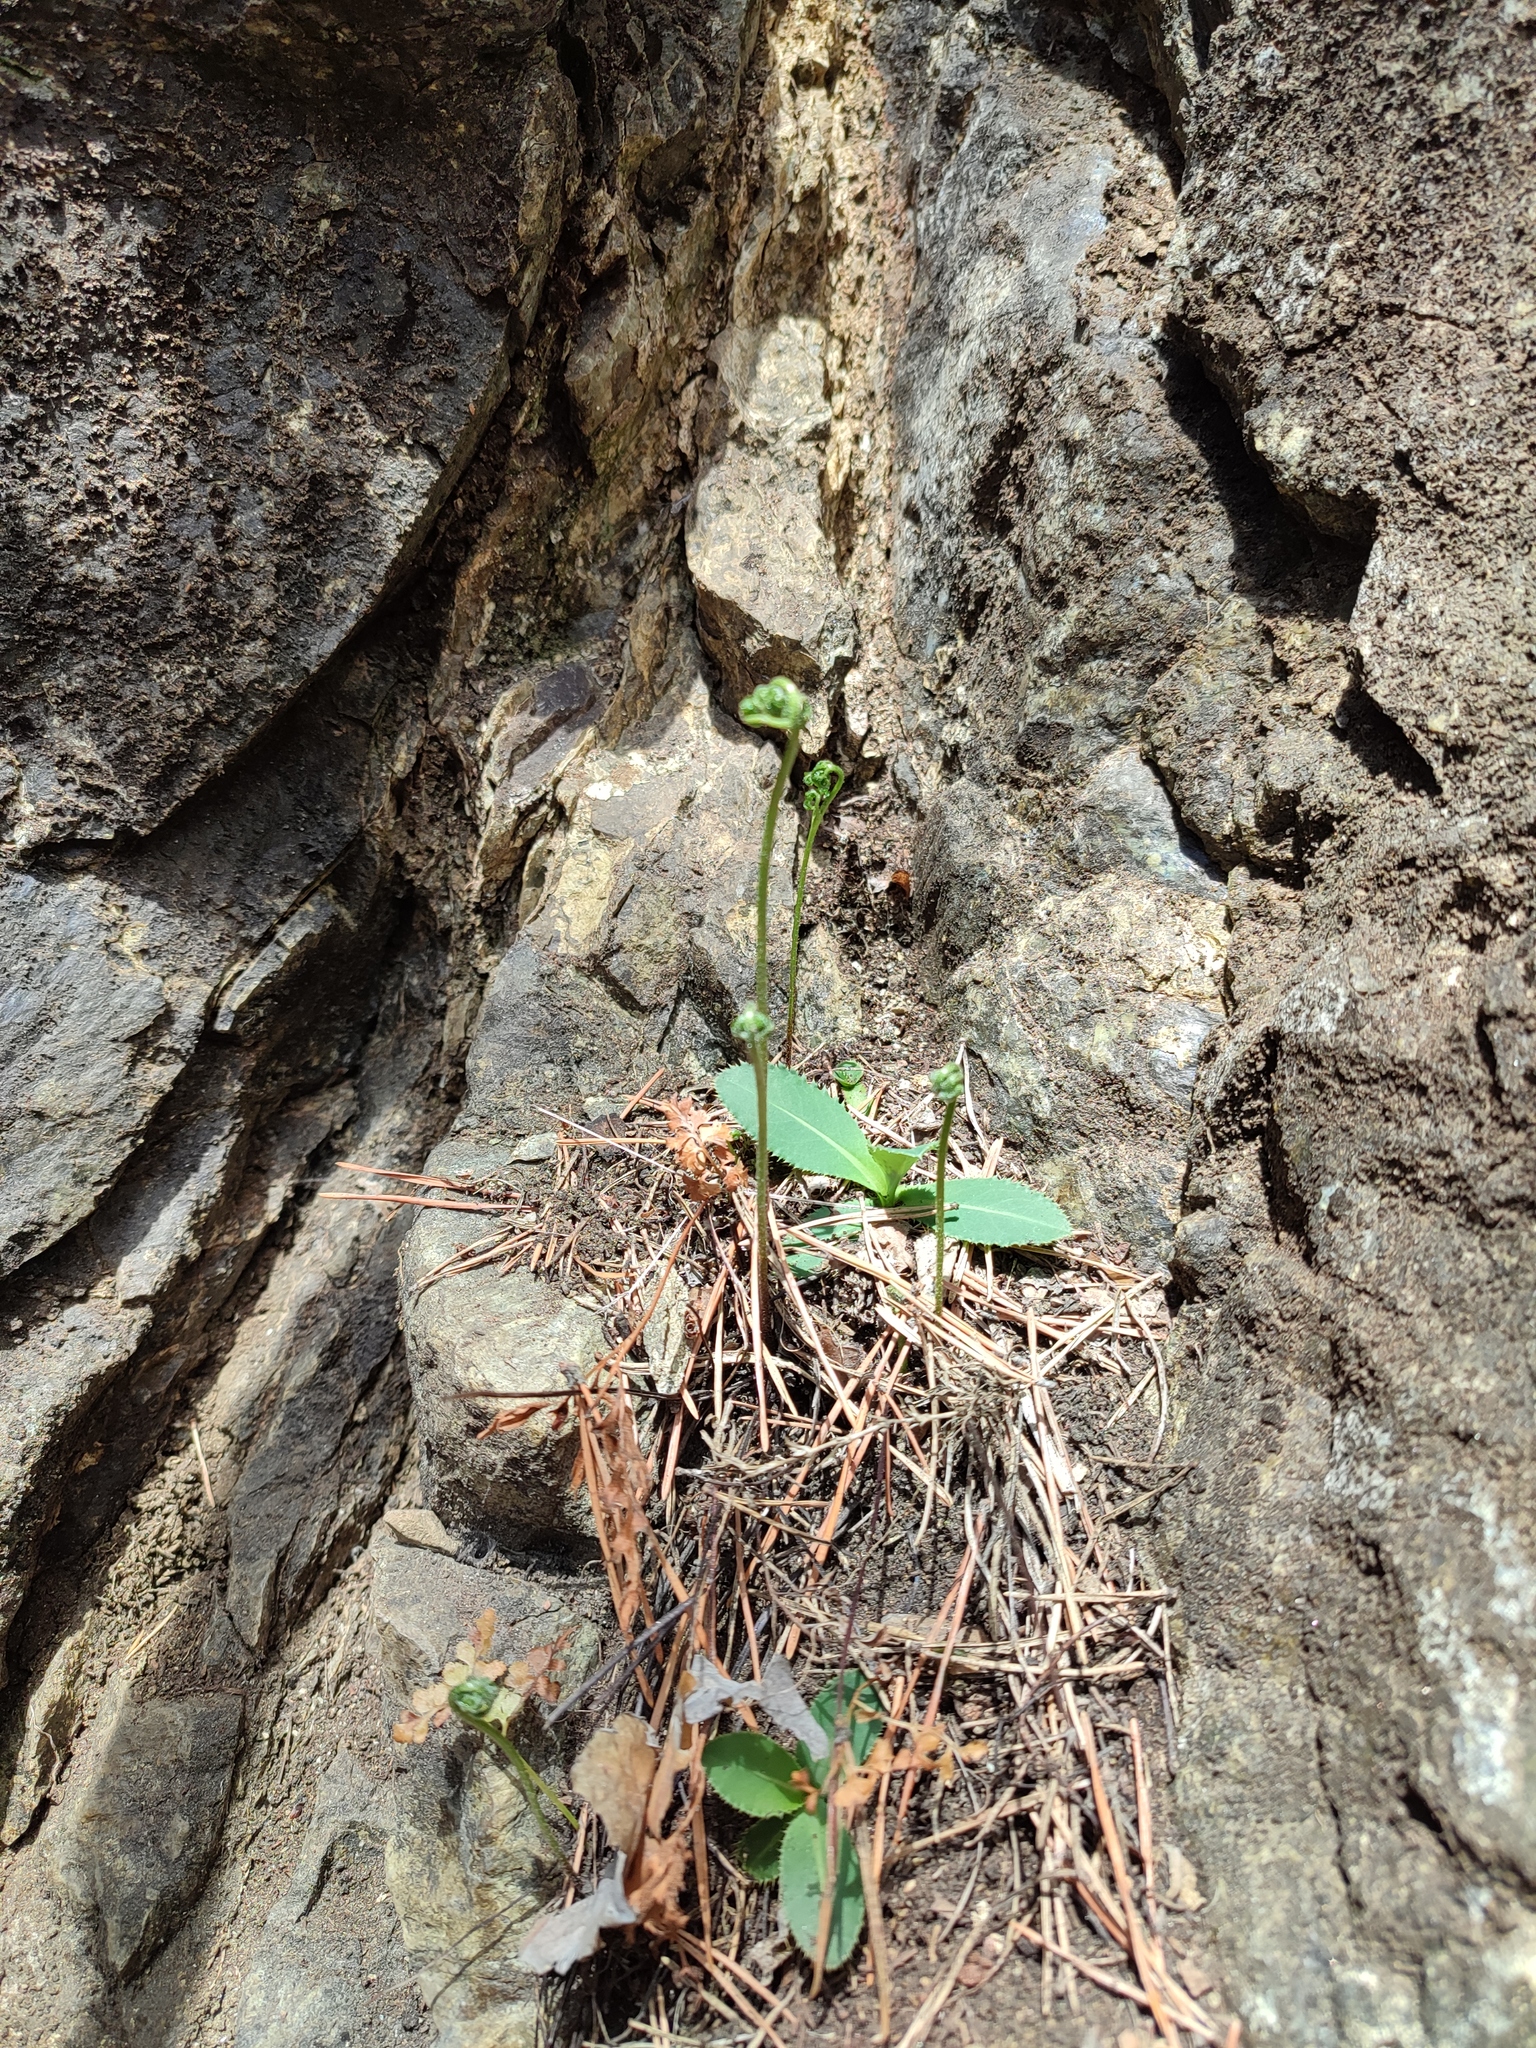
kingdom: Plantae
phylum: Tracheophyta
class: Polypodiopsida
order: Polypodiales
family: Aspleniaceae
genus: Asplenium
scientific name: Asplenium cuneifolium
